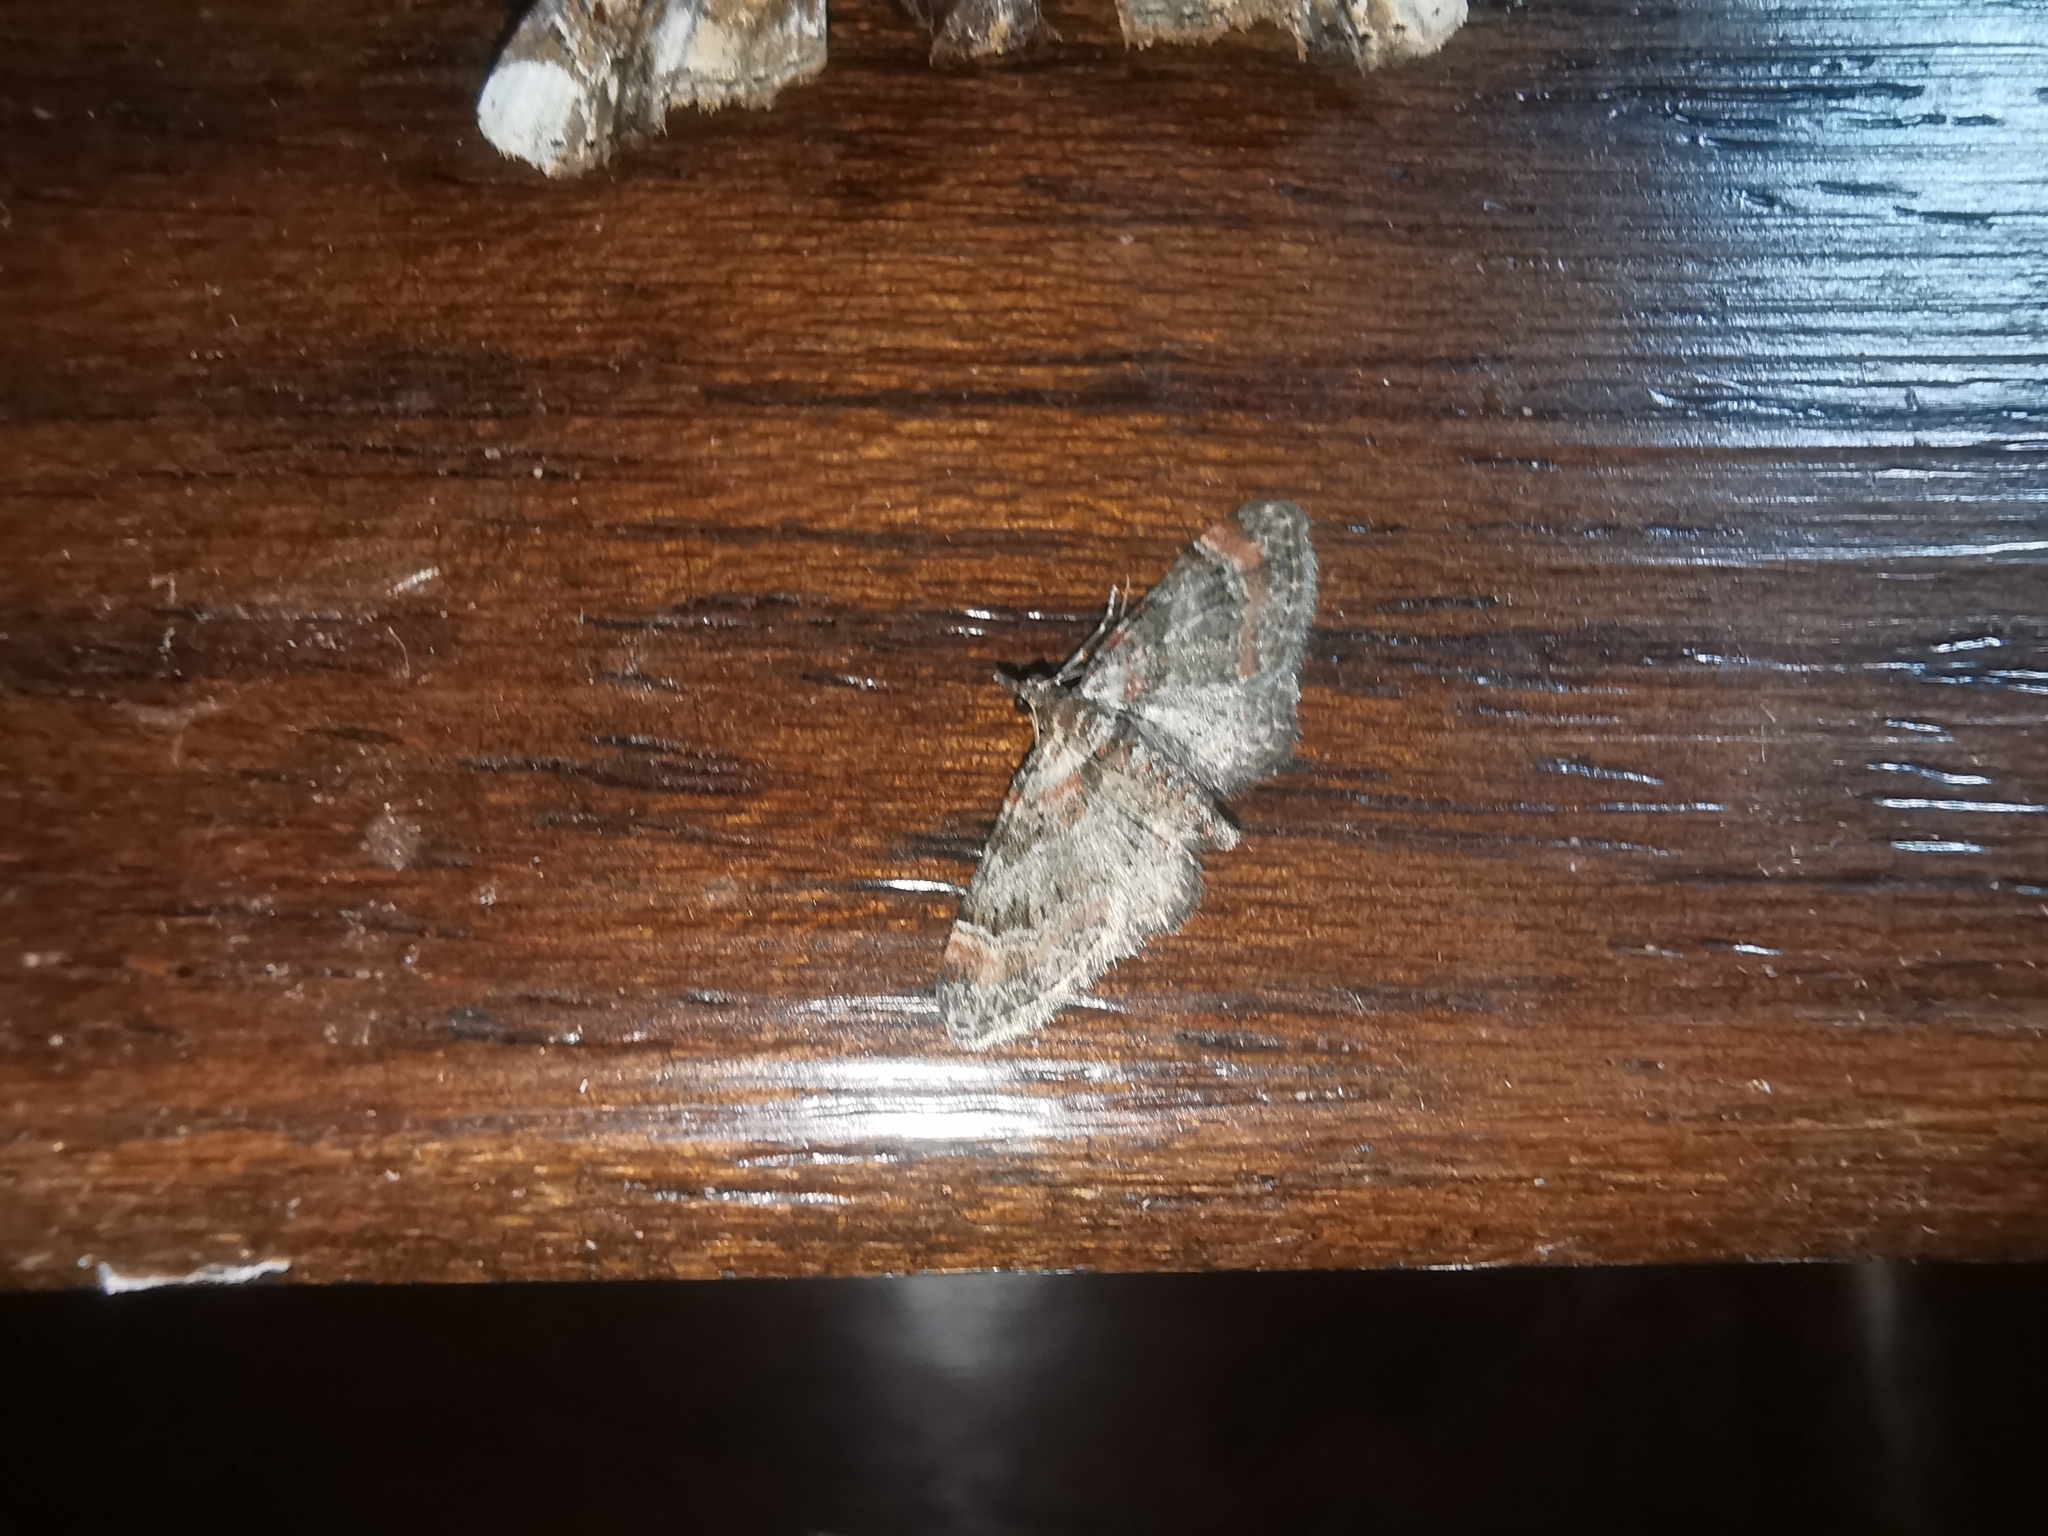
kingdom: Animalia
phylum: Arthropoda
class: Insecta
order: Lepidoptera
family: Geometridae
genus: Gymnoscelis
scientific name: Gymnoscelis rufifasciata
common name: Double-striped pug
